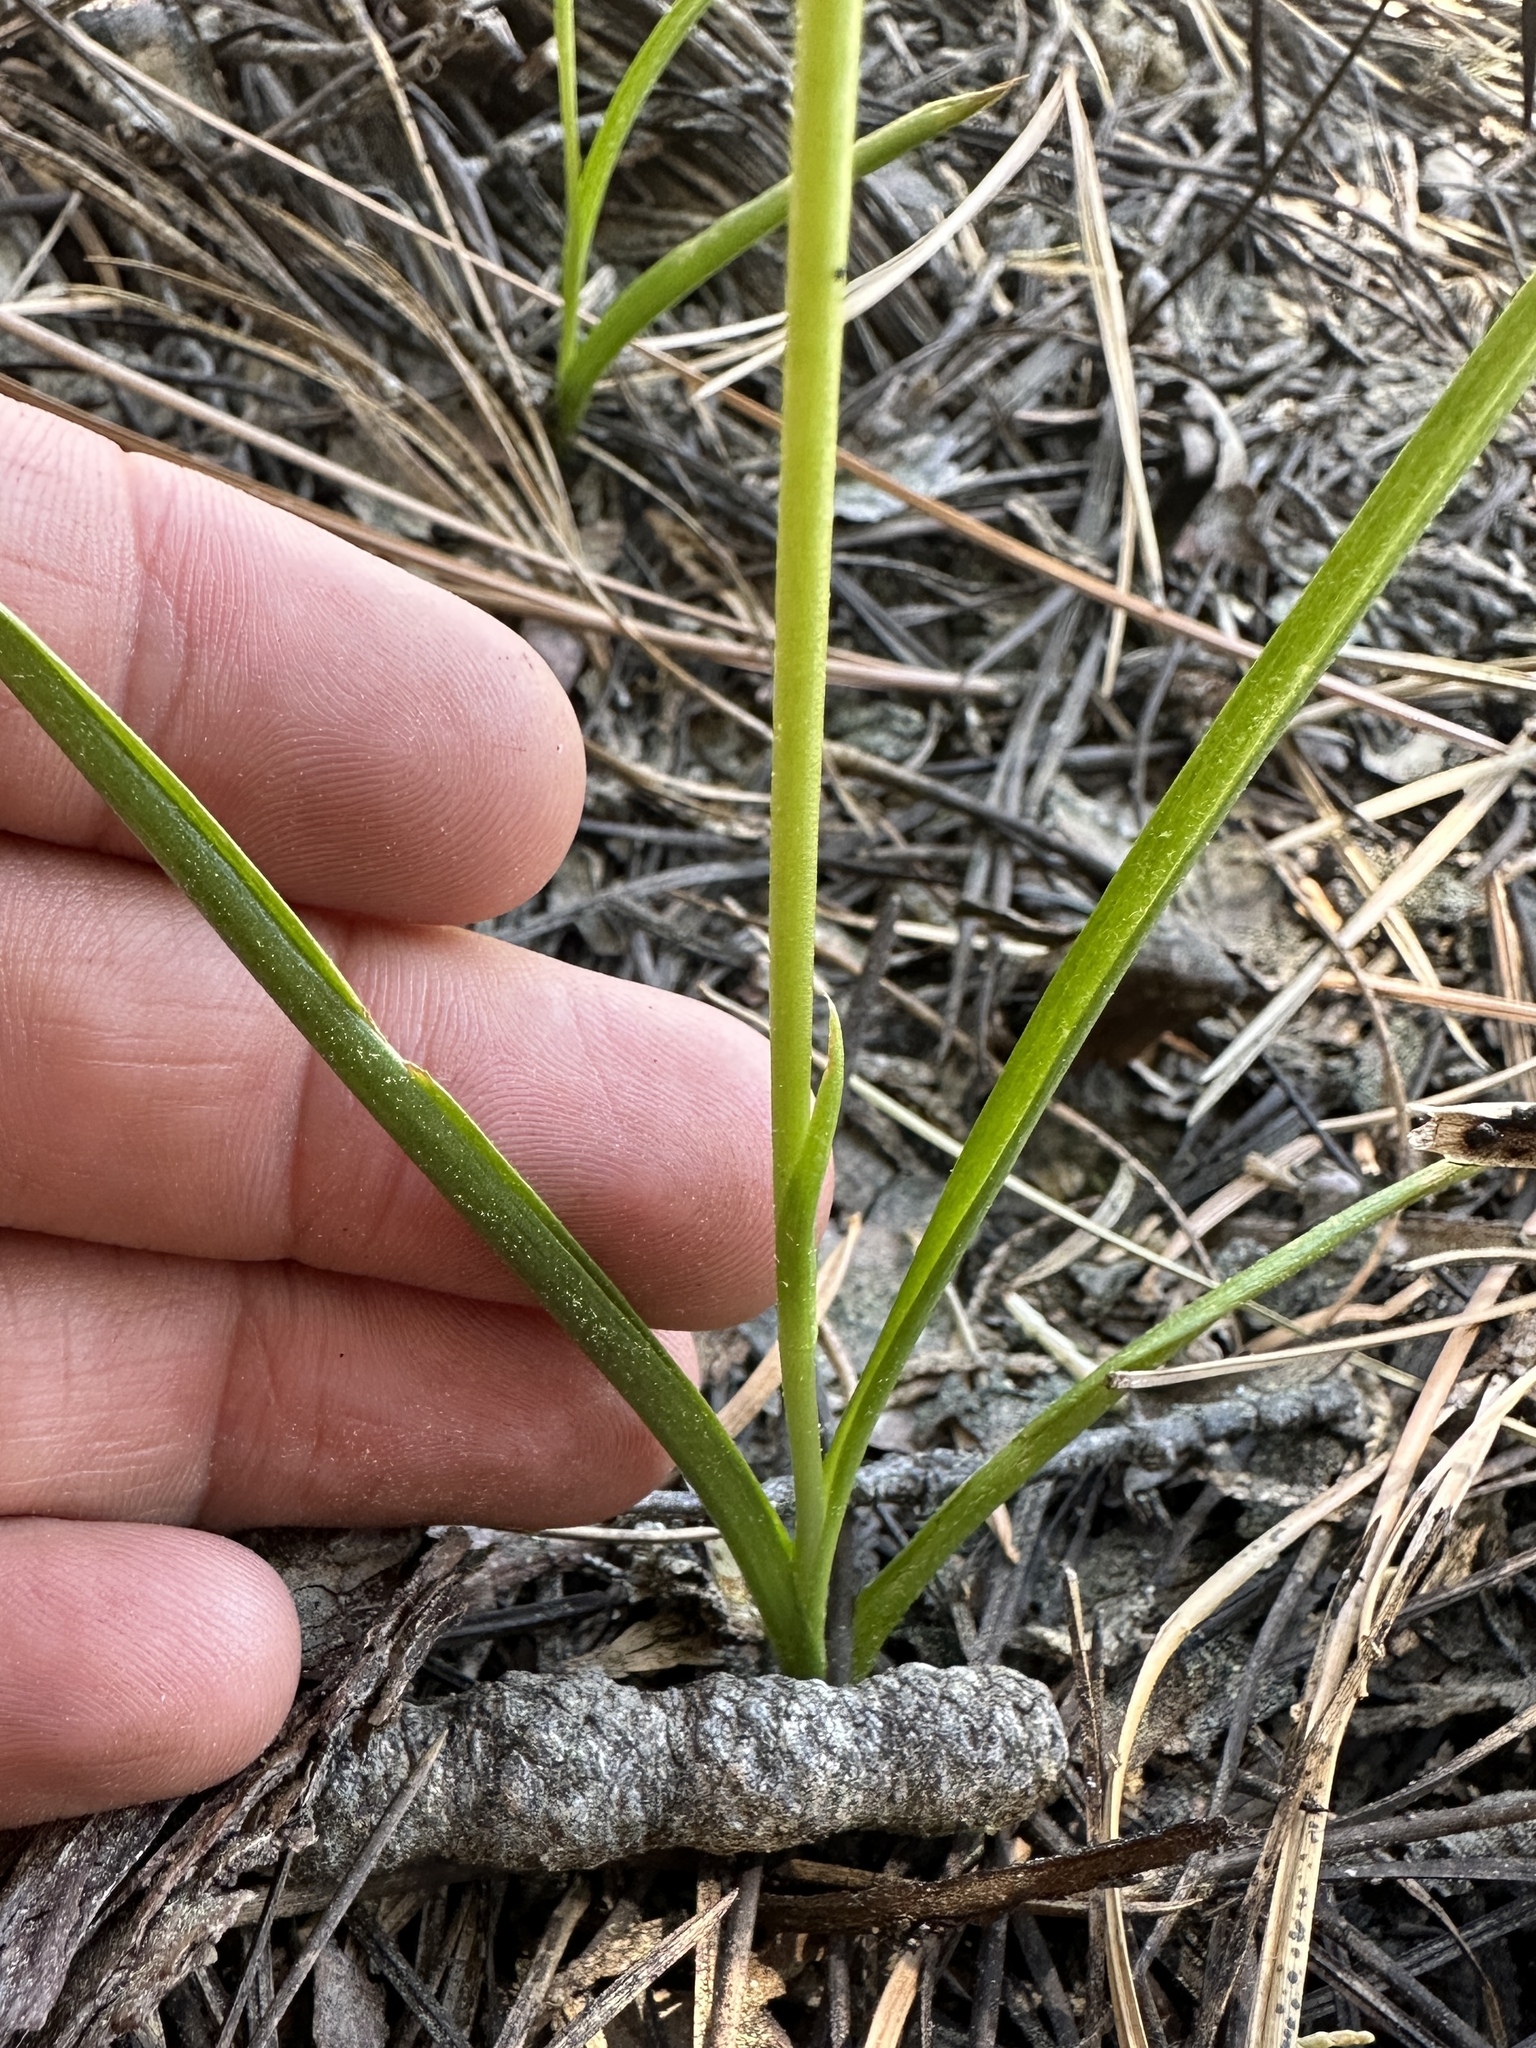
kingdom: Plantae
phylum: Tracheophyta
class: Liliopsida
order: Asparagales
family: Orchidaceae
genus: Platanthera
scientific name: Platanthera colemanii
